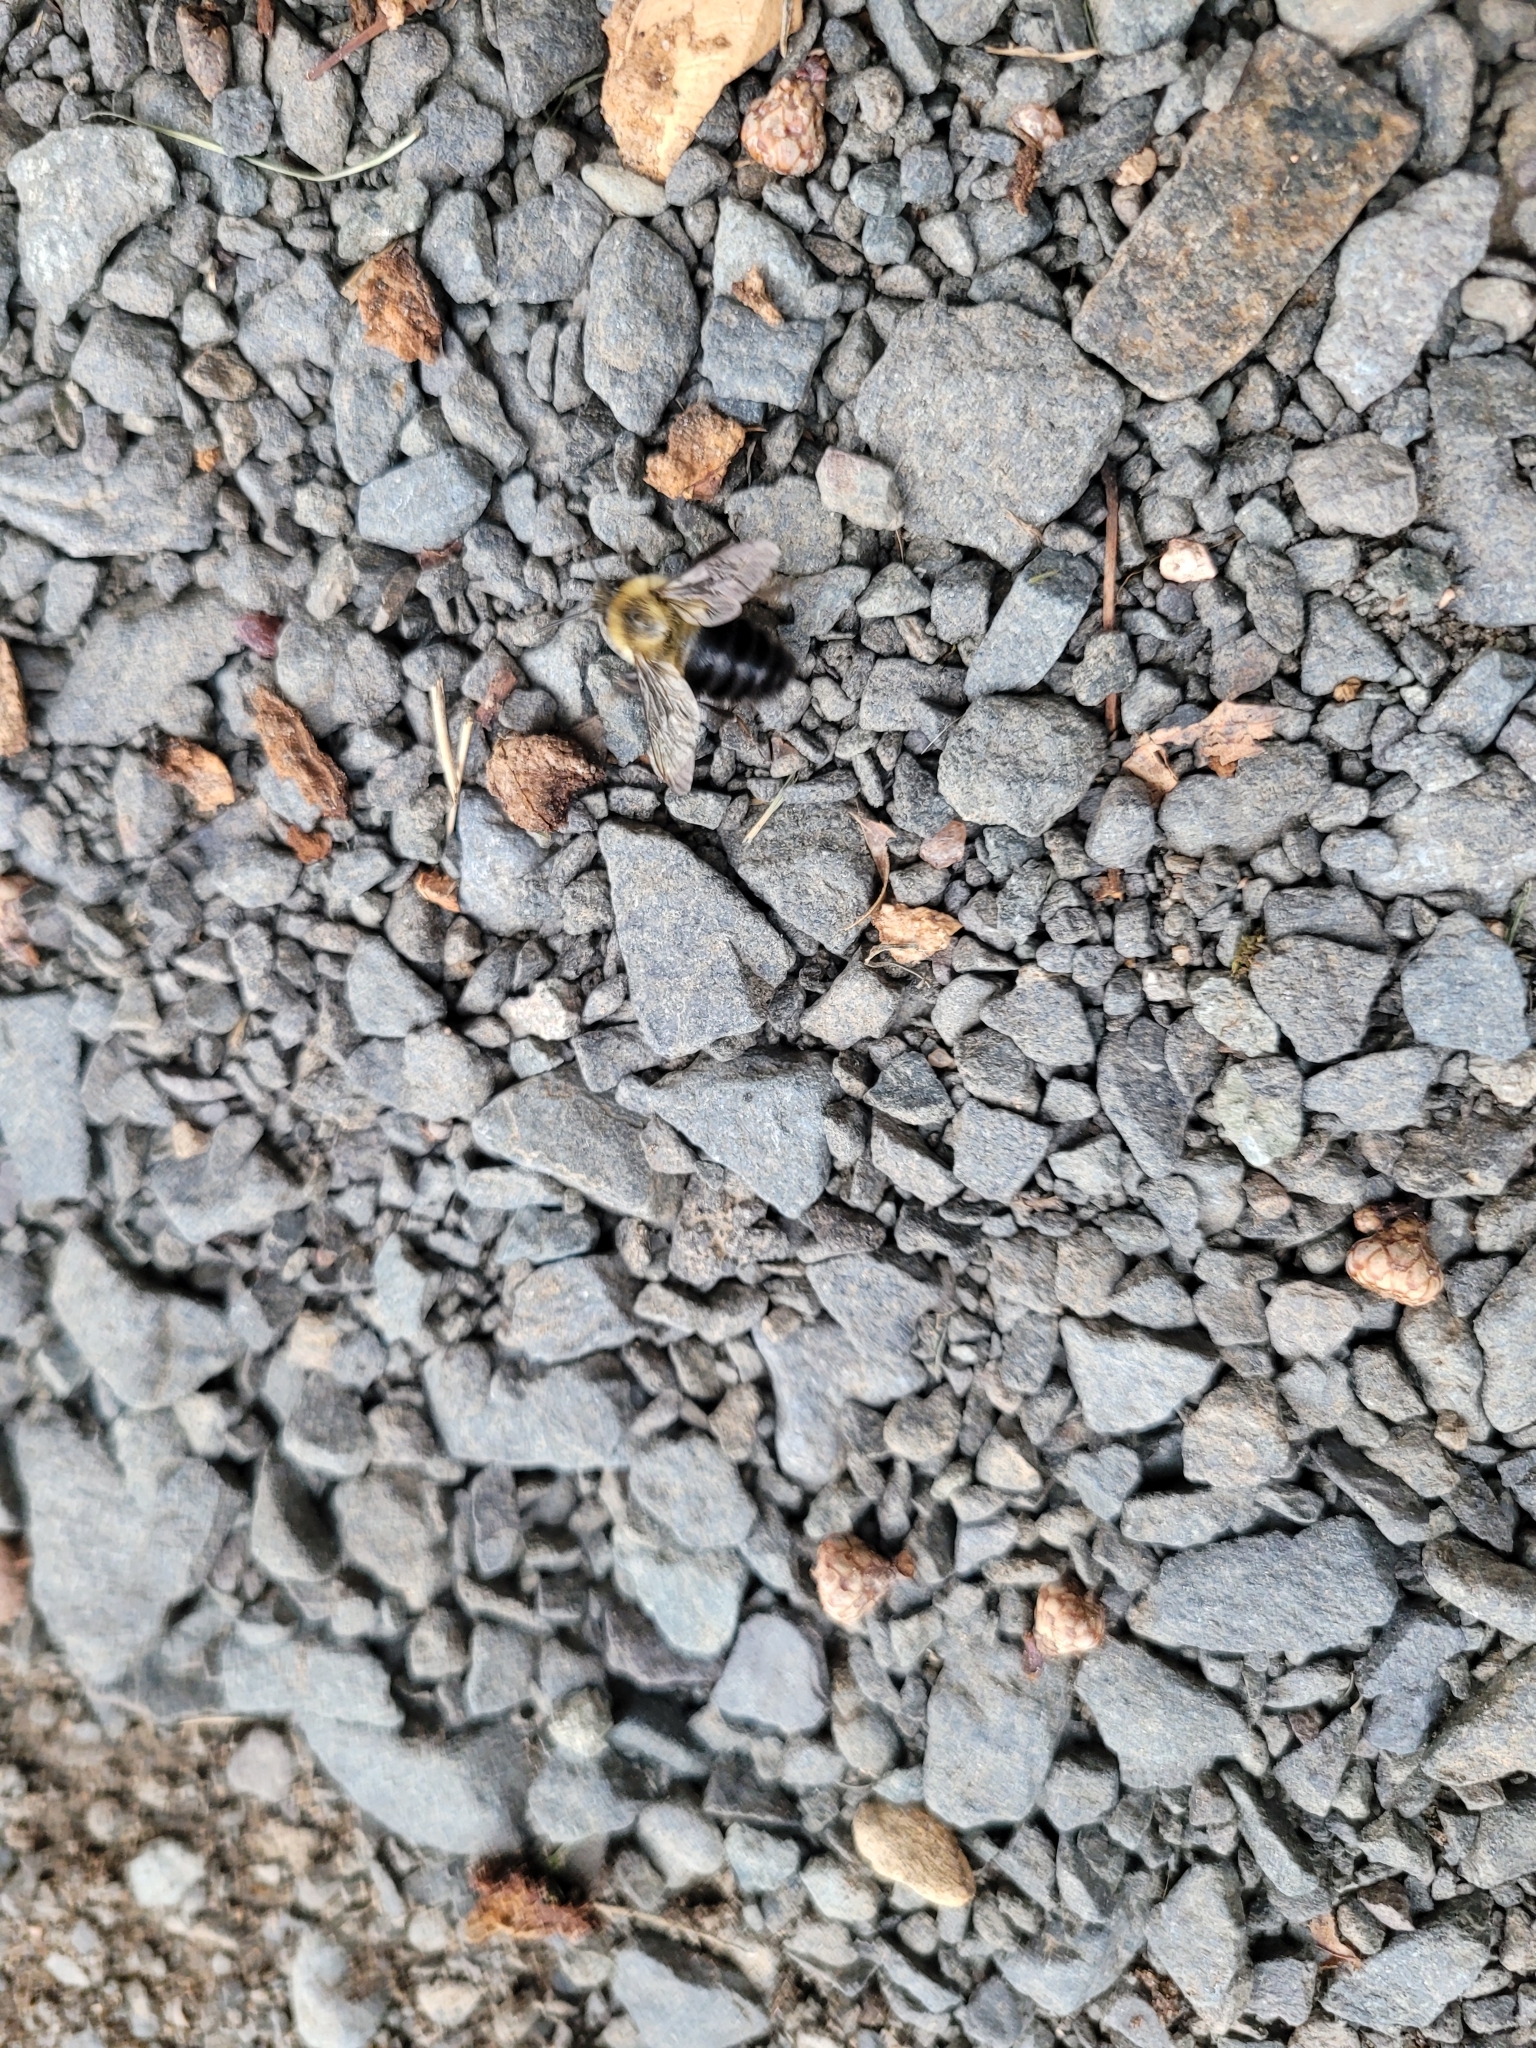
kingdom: Animalia
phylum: Arthropoda
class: Insecta
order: Hymenoptera
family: Apidae
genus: Bombus
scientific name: Bombus impatiens
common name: Common eastern bumble bee
